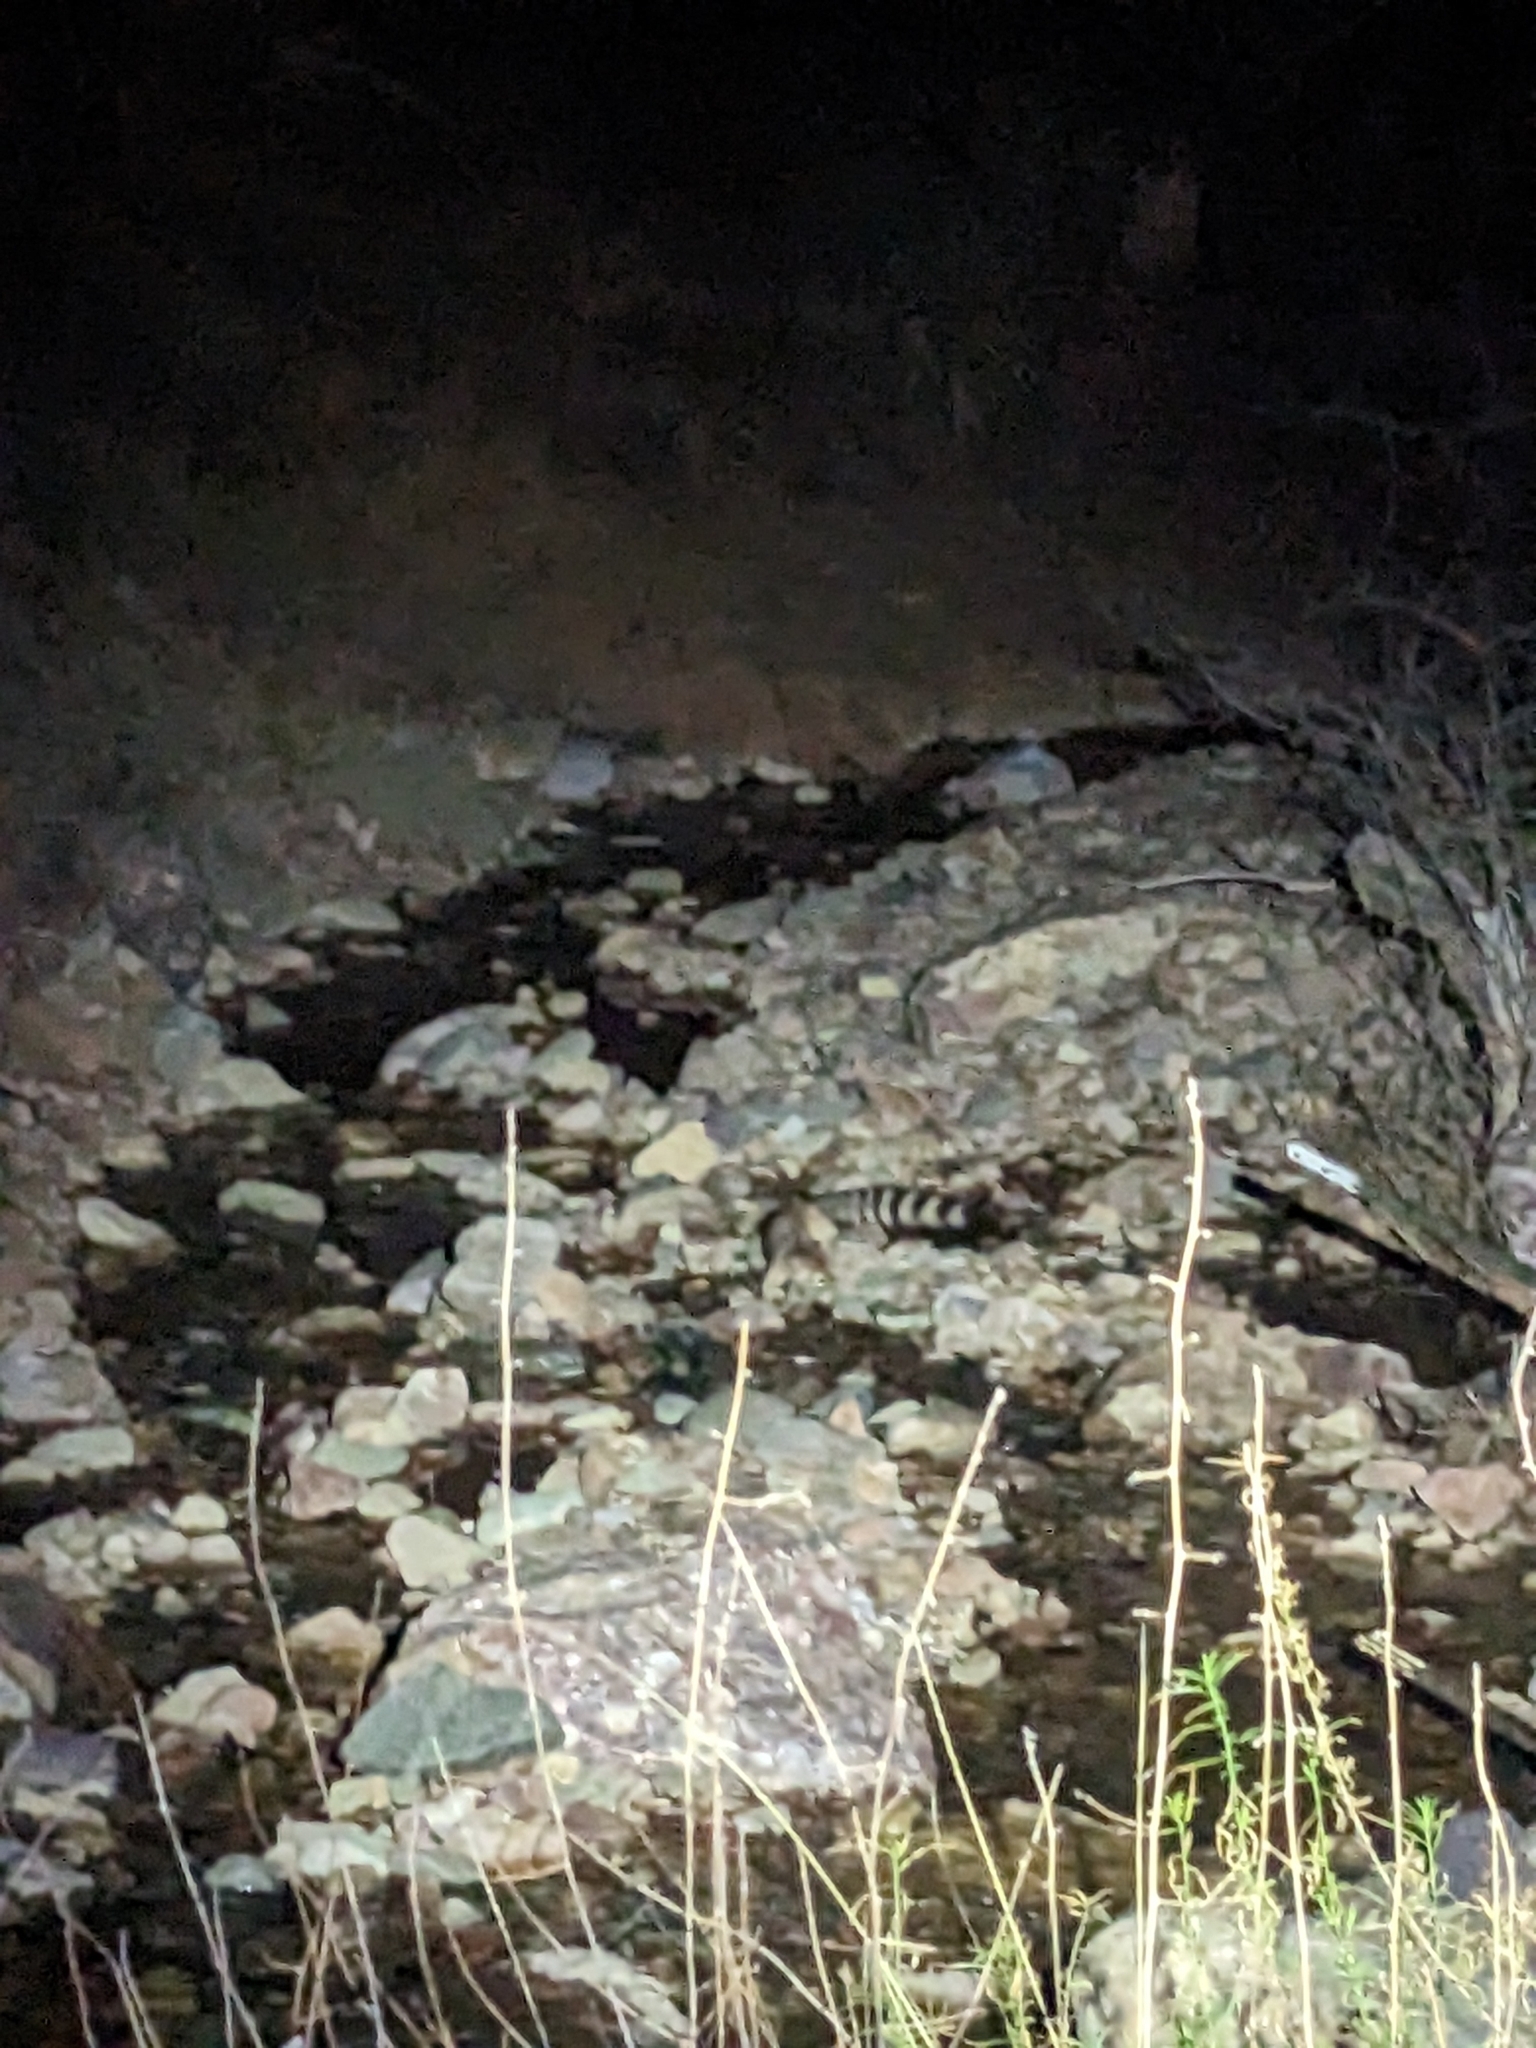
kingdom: Animalia
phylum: Chordata
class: Mammalia
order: Carnivora
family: Procyonidae
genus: Bassariscus
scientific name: Bassariscus astutus
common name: Ringtail
